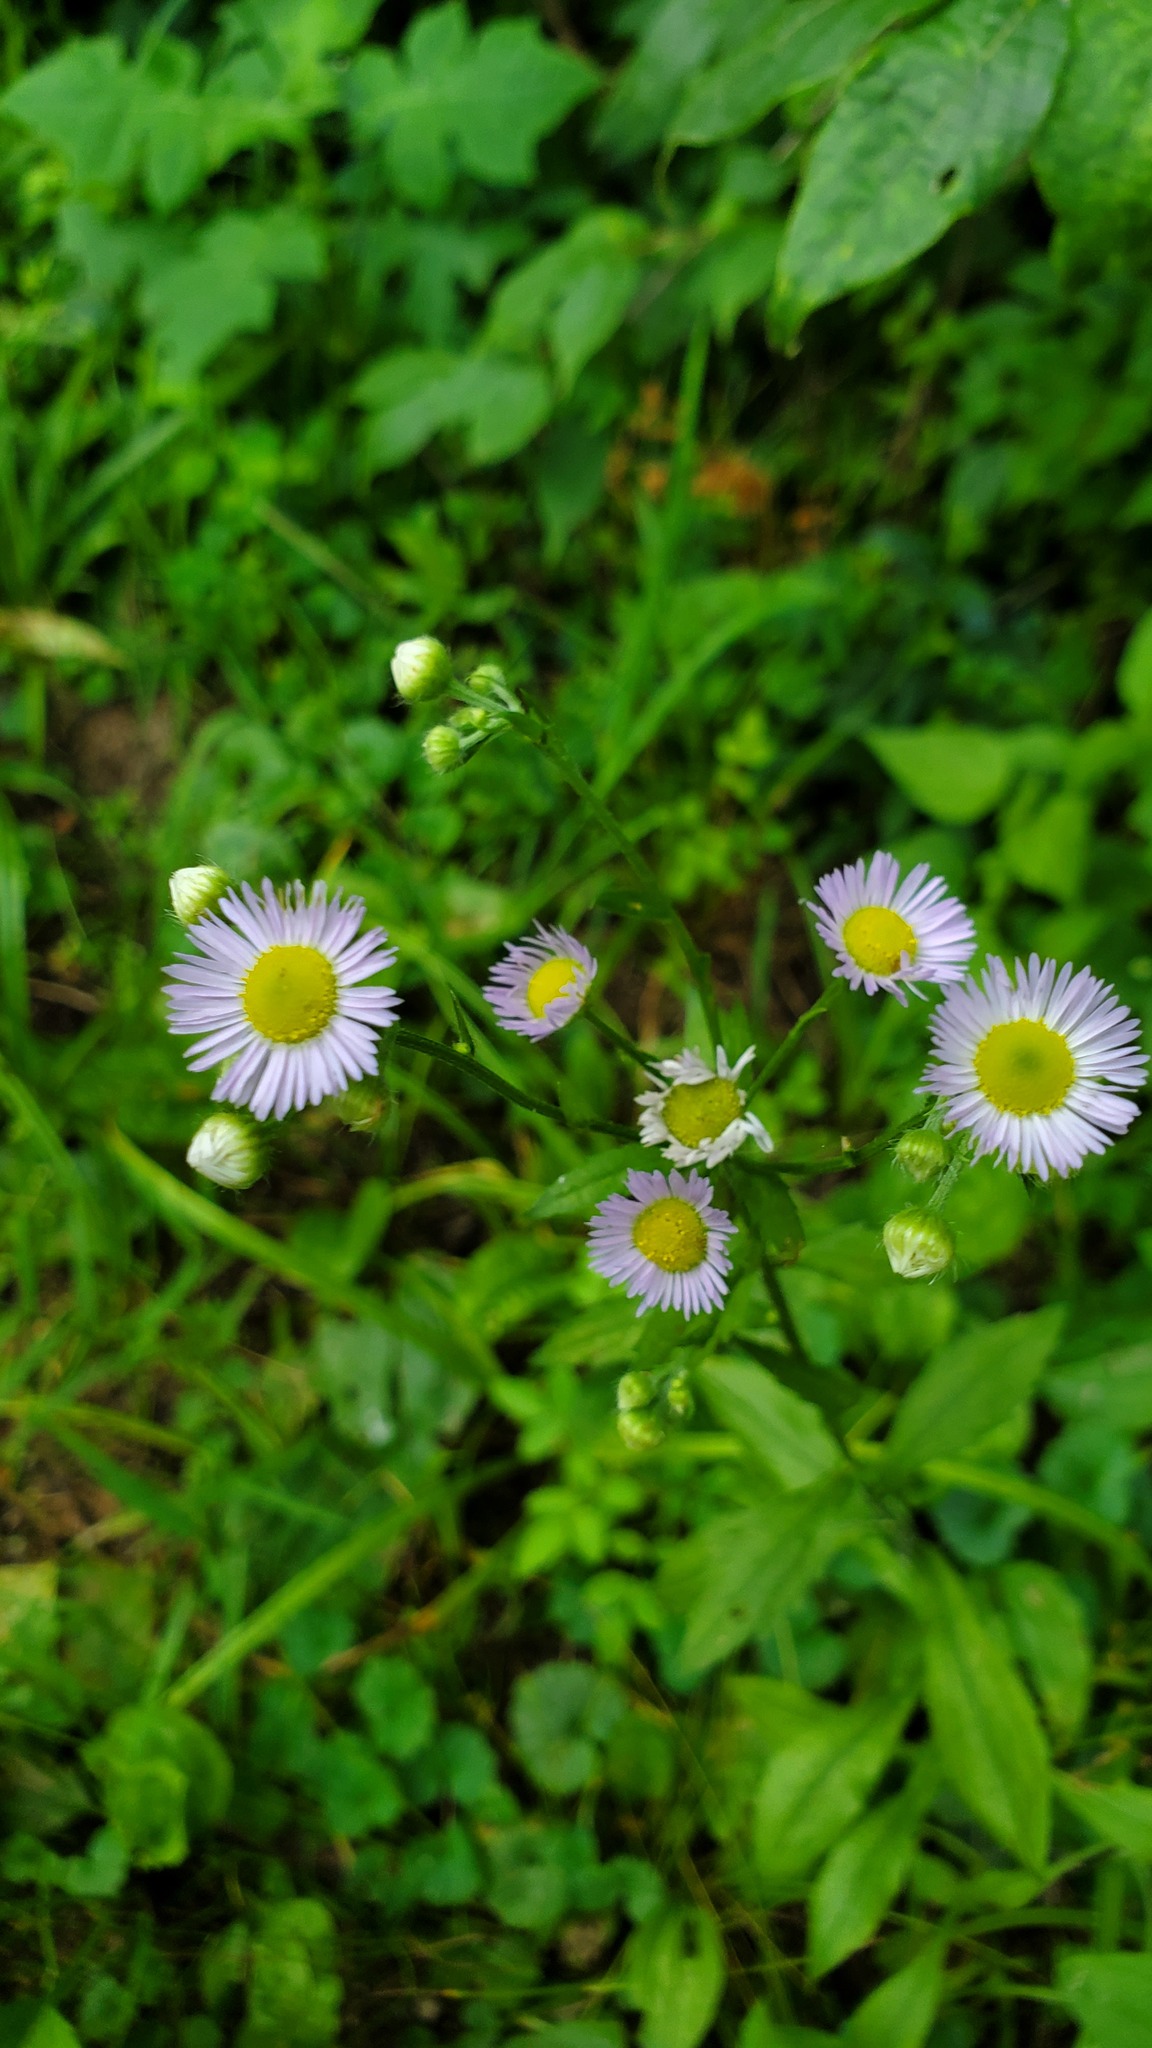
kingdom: Plantae
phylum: Tracheophyta
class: Magnoliopsida
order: Asterales
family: Asteraceae
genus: Erigeron
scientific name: Erigeron annuus
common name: Tall fleabane
